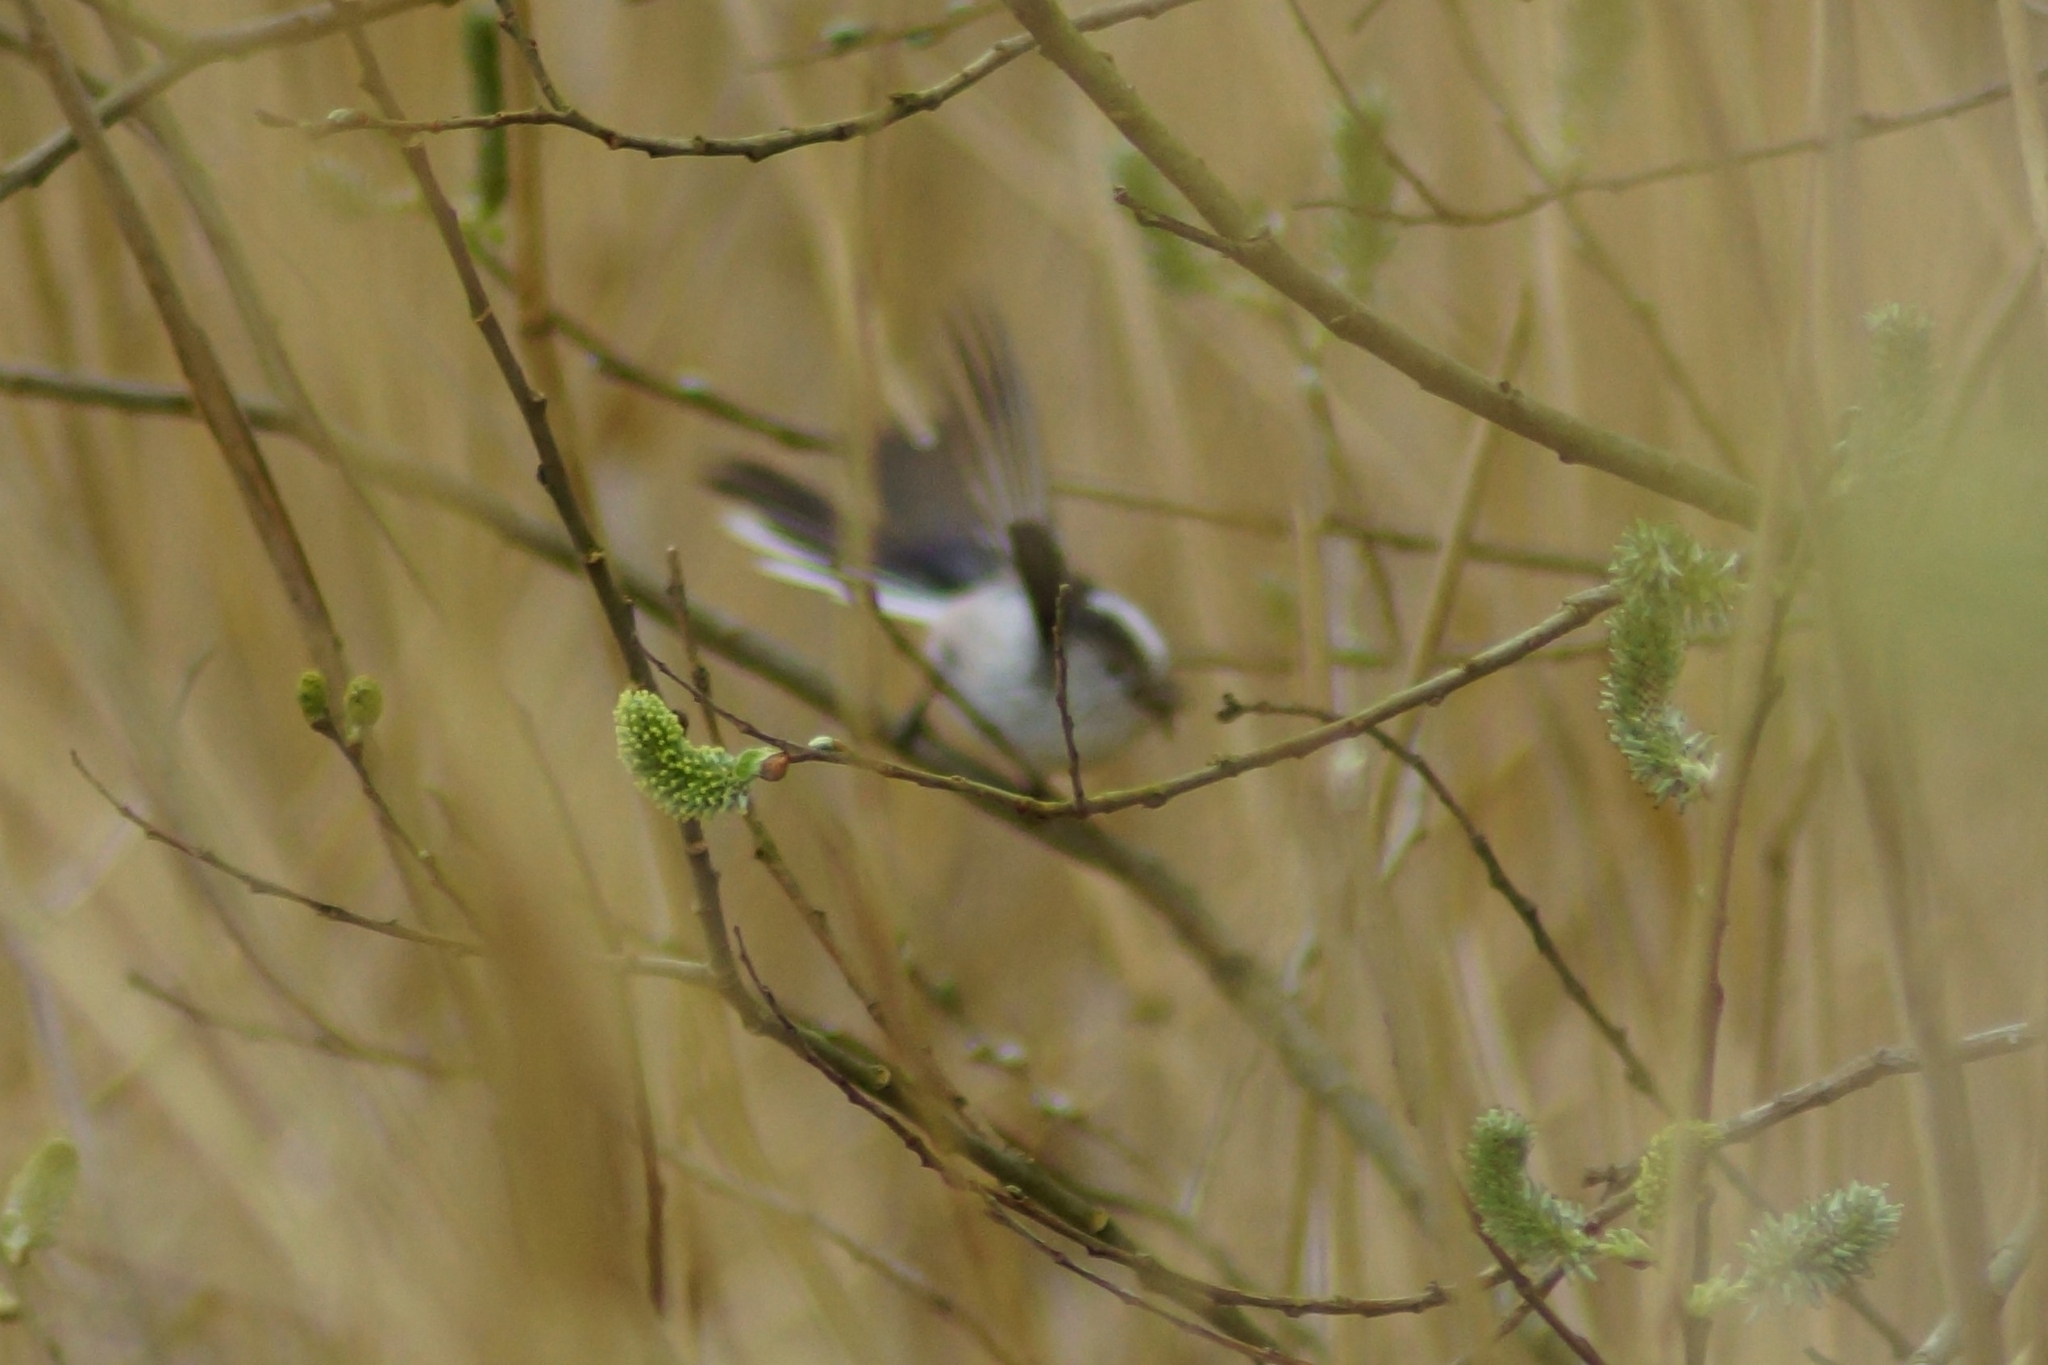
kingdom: Animalia
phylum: Chordata
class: Aves
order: Passeriformes
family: Aegithalidae
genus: Aegithalos
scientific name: Aegithalos caudatus
